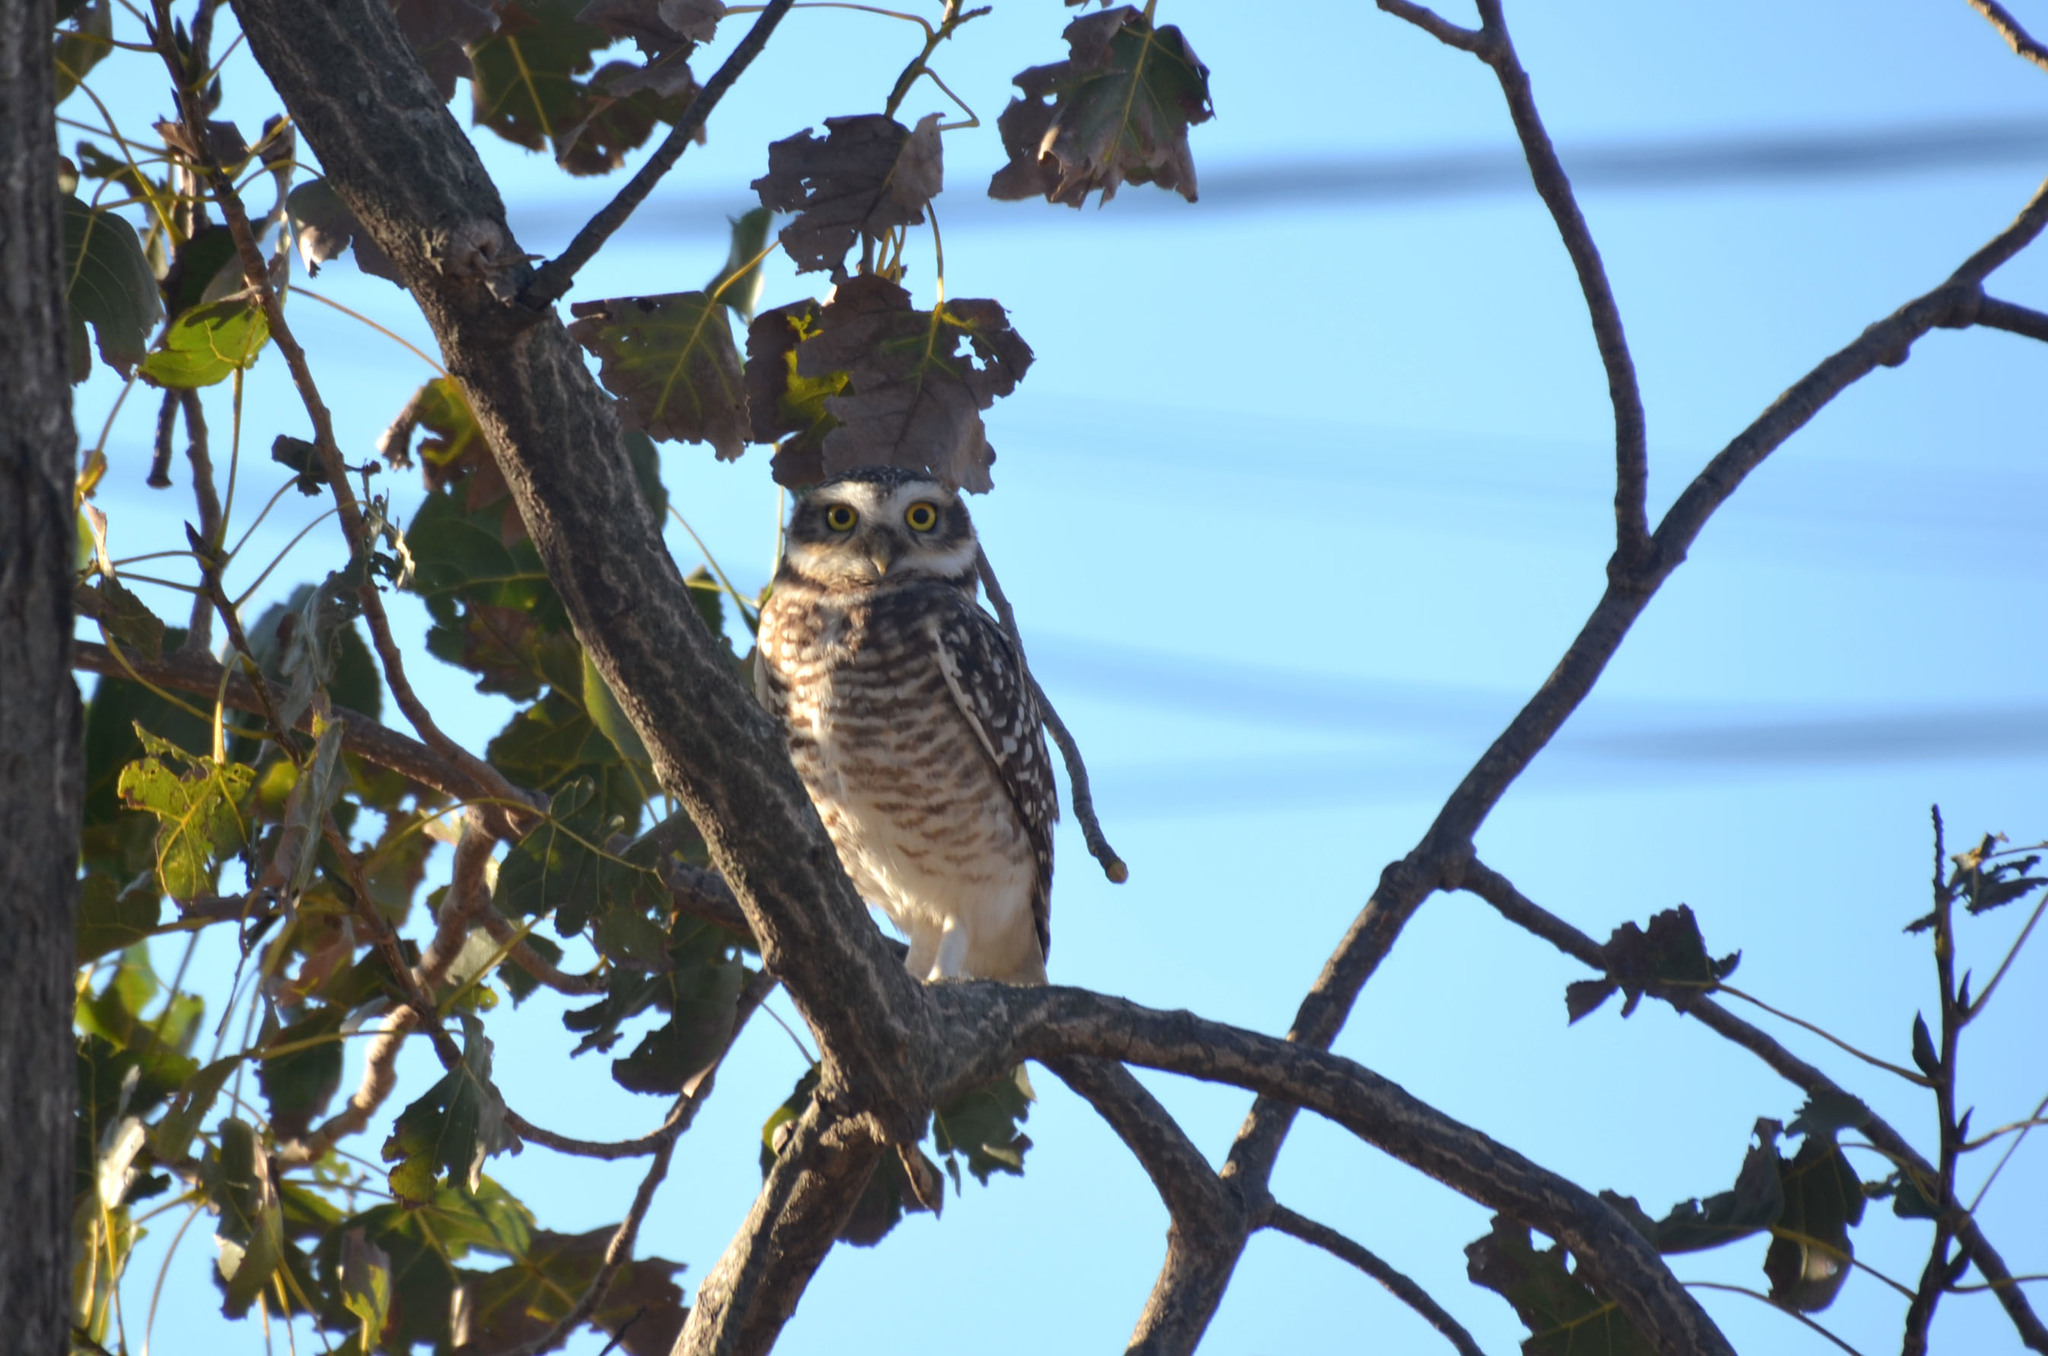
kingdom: Animalia
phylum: Chordata
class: Aves
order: Strigiformes
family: Strigidae
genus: Athene
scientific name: Athene cunicularia
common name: Burrowing owl
